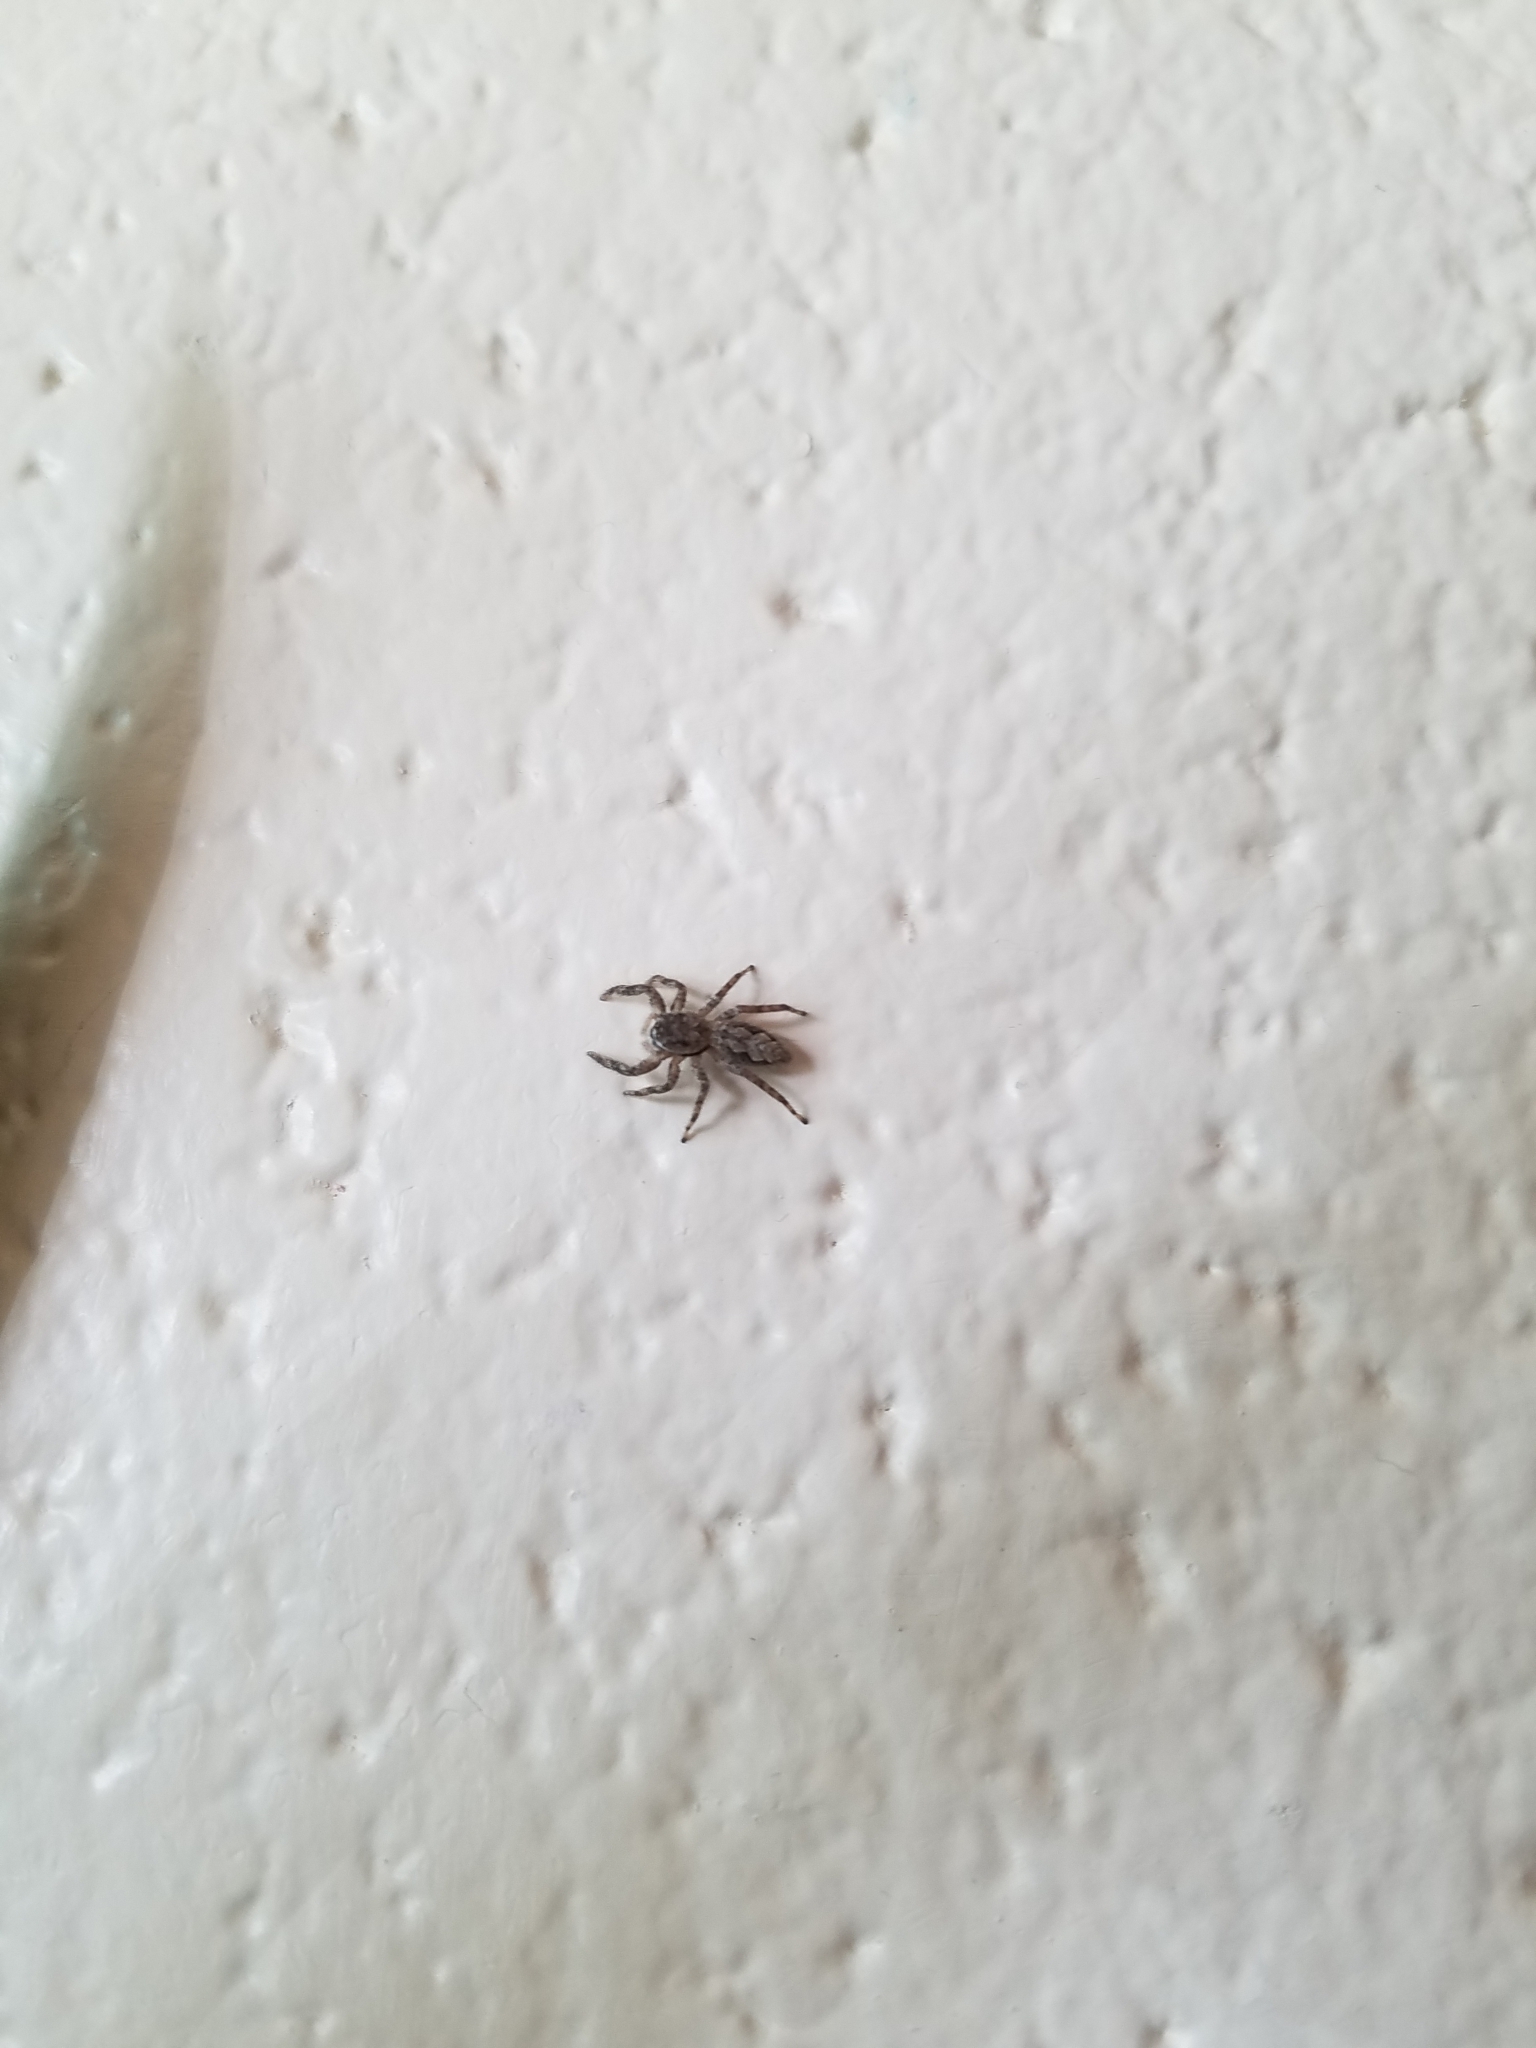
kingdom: Animalia
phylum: Arthropoda
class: Arachnida
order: Araneae
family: Salticidae
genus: Platycryptus
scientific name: Platycryptus undatus
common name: Tan jumping spider
